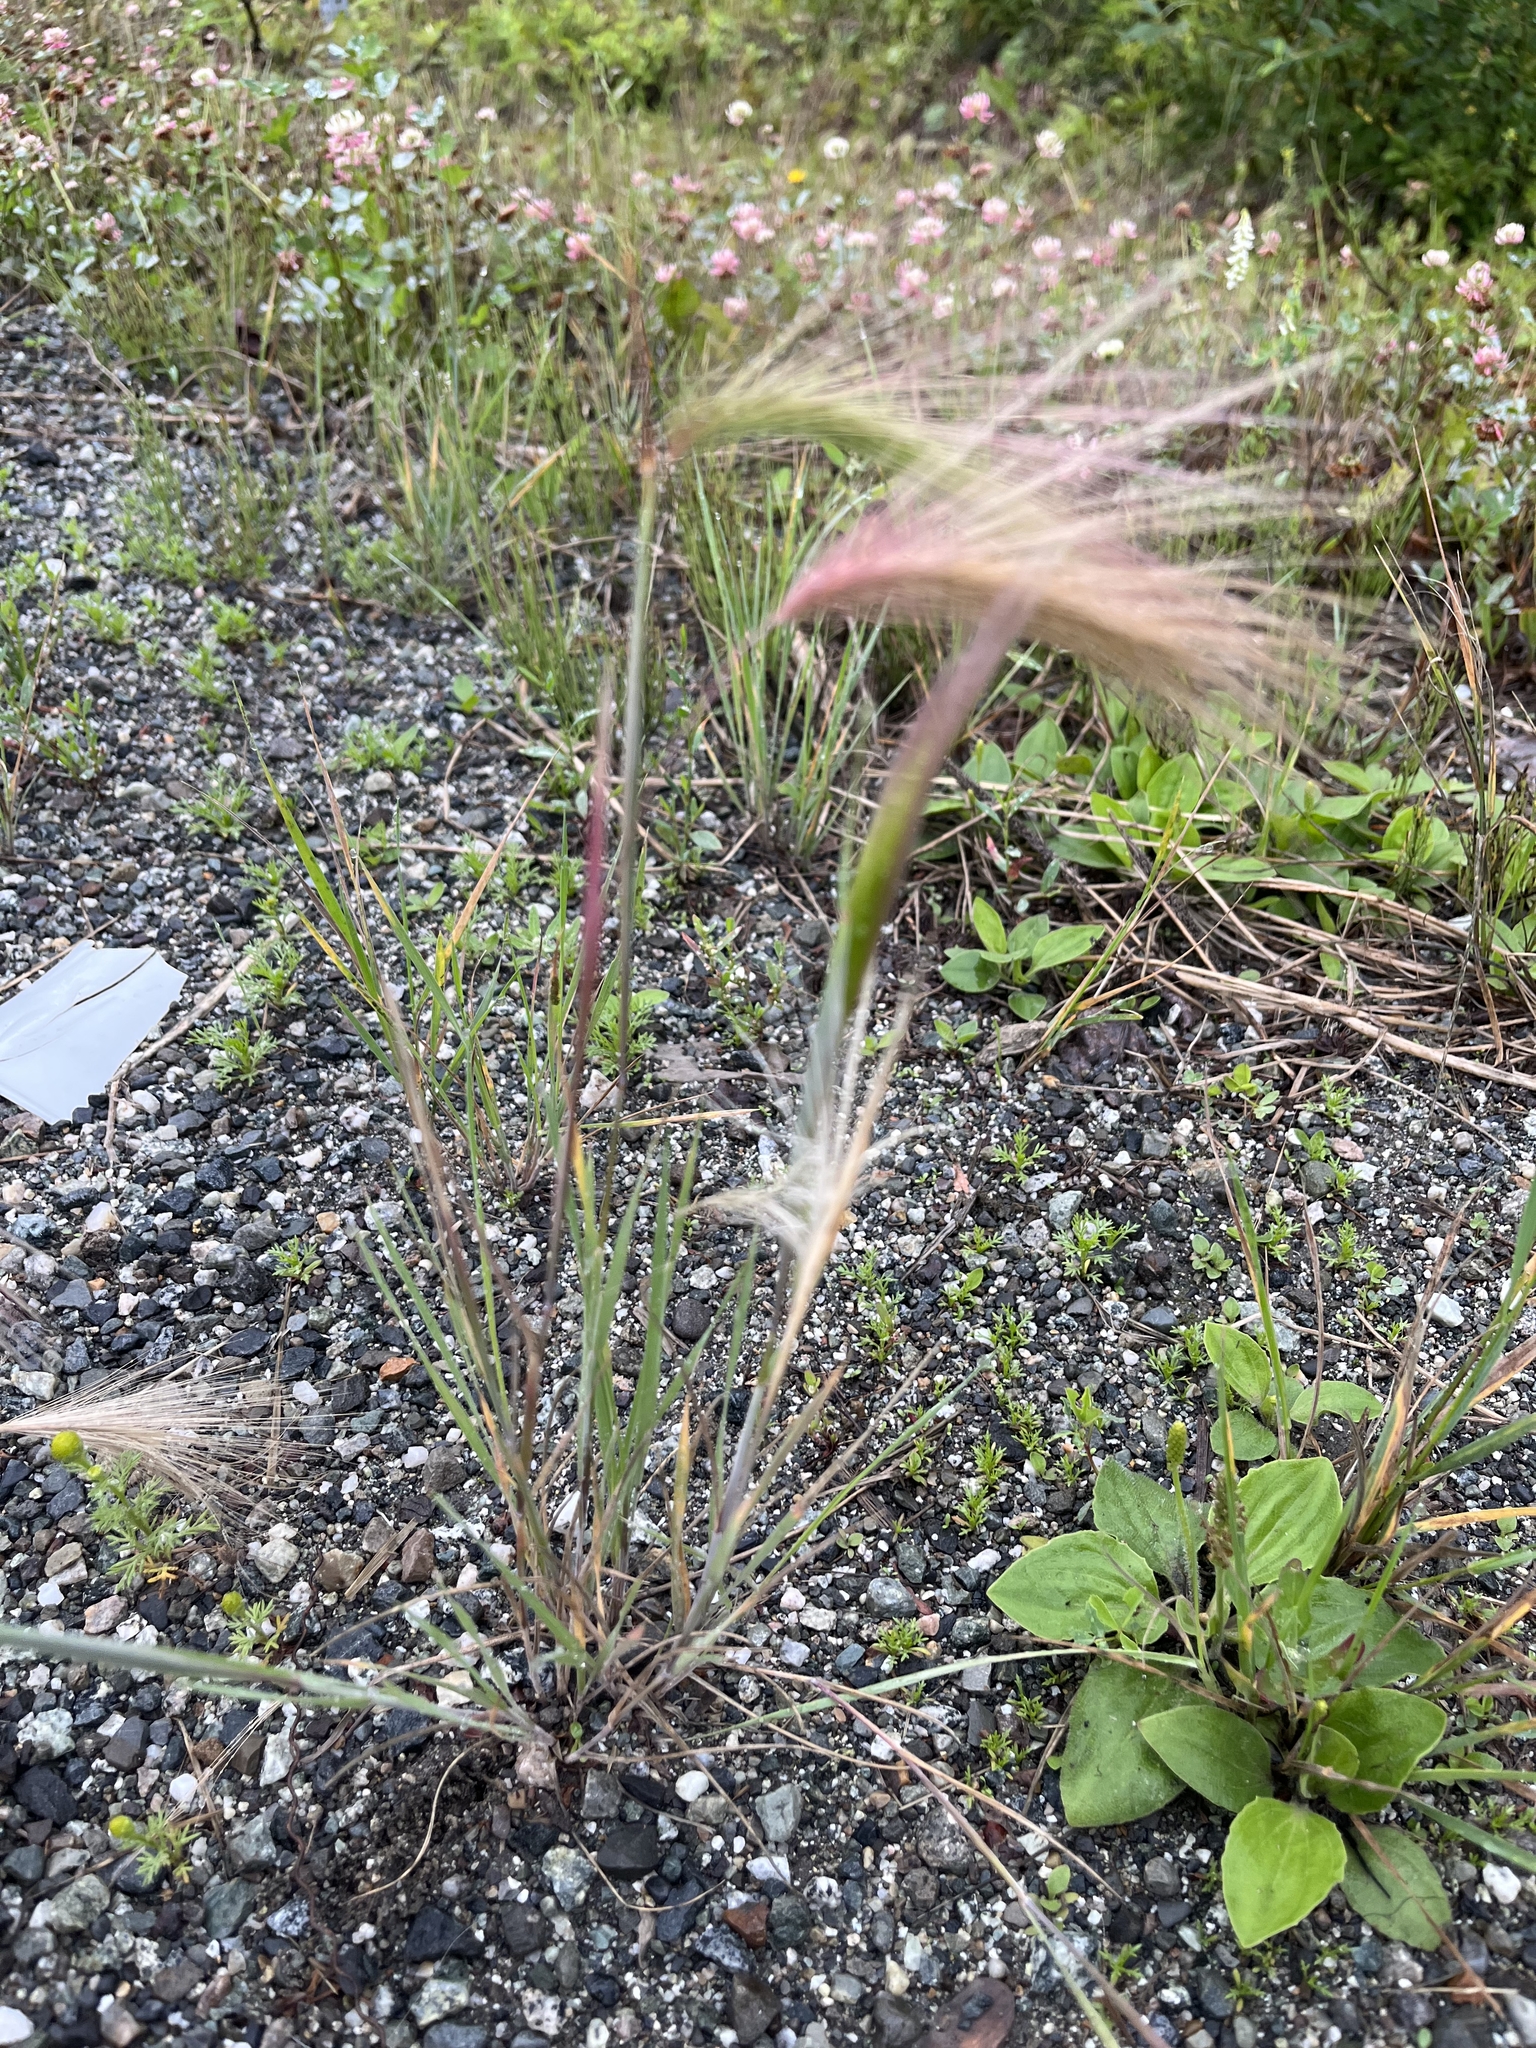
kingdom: Plantae
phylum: Tracheophyta
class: Liliopsida
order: Poales
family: Poaceae
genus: Hordeum
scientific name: Hordeum jubatum
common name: Foxtail barley
